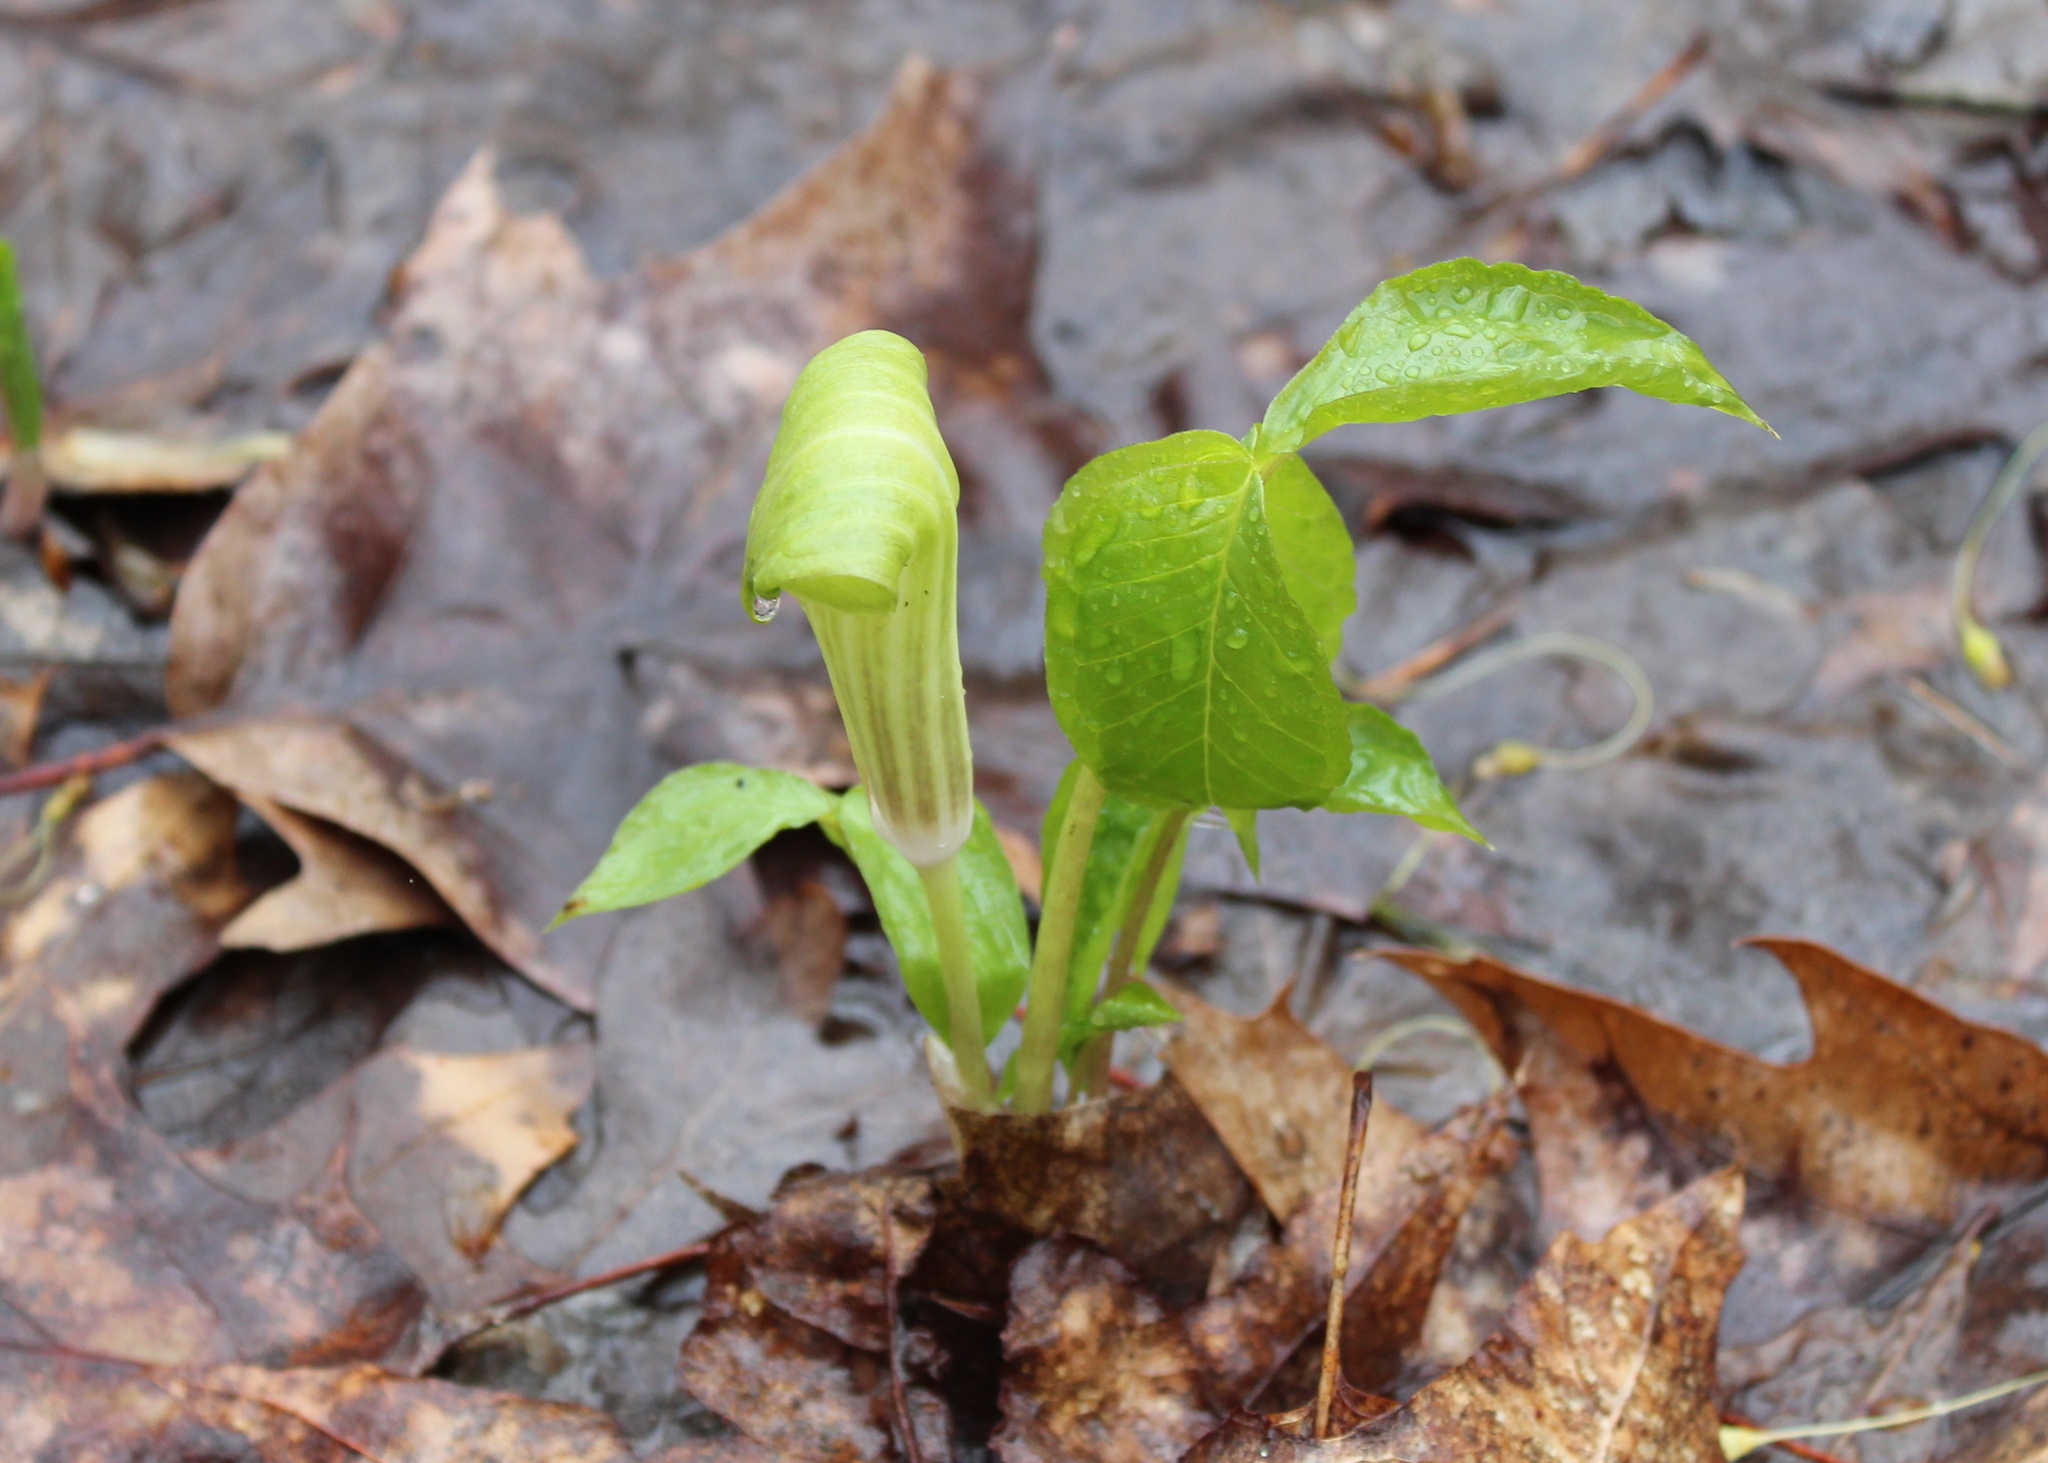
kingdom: Plantae
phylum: Tracheophyta
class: Liliopsida
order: Alismatales
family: Araceae
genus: Arisaema
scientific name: Arisaema triphyllum
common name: Jack-in-the-pulpit
